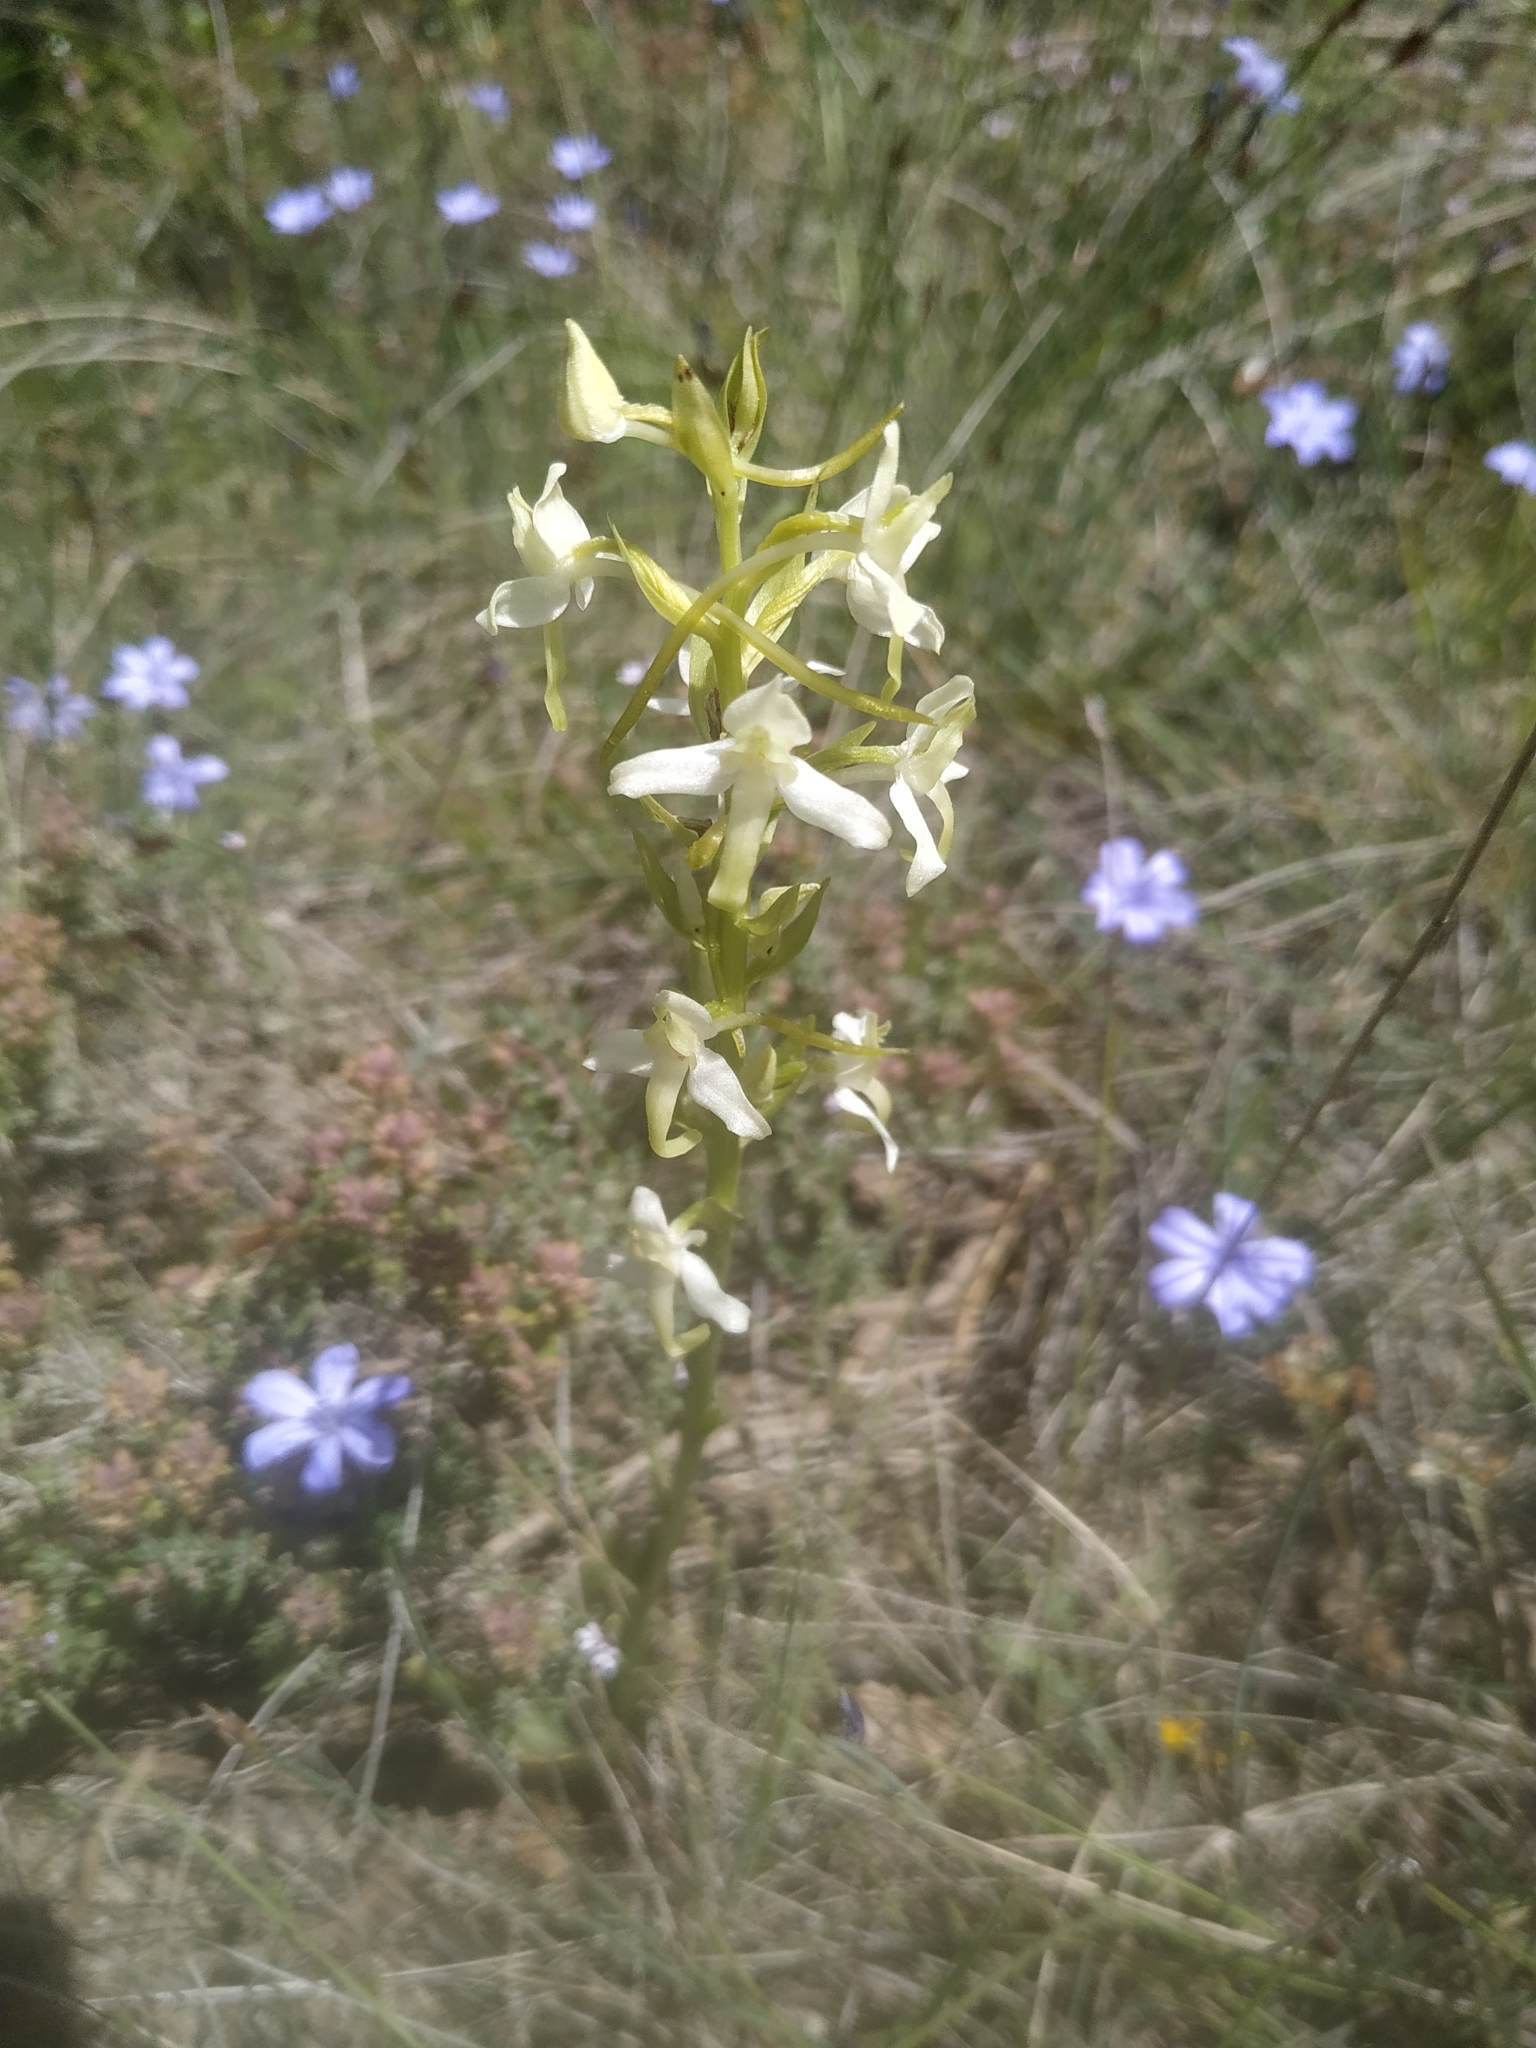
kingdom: Plantae
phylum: Tracheophyta
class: Liliopsida
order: Asparagales
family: Orchidaceae
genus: Platanthera
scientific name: Platanthera bifolia
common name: Lesser butterfly-orchid
